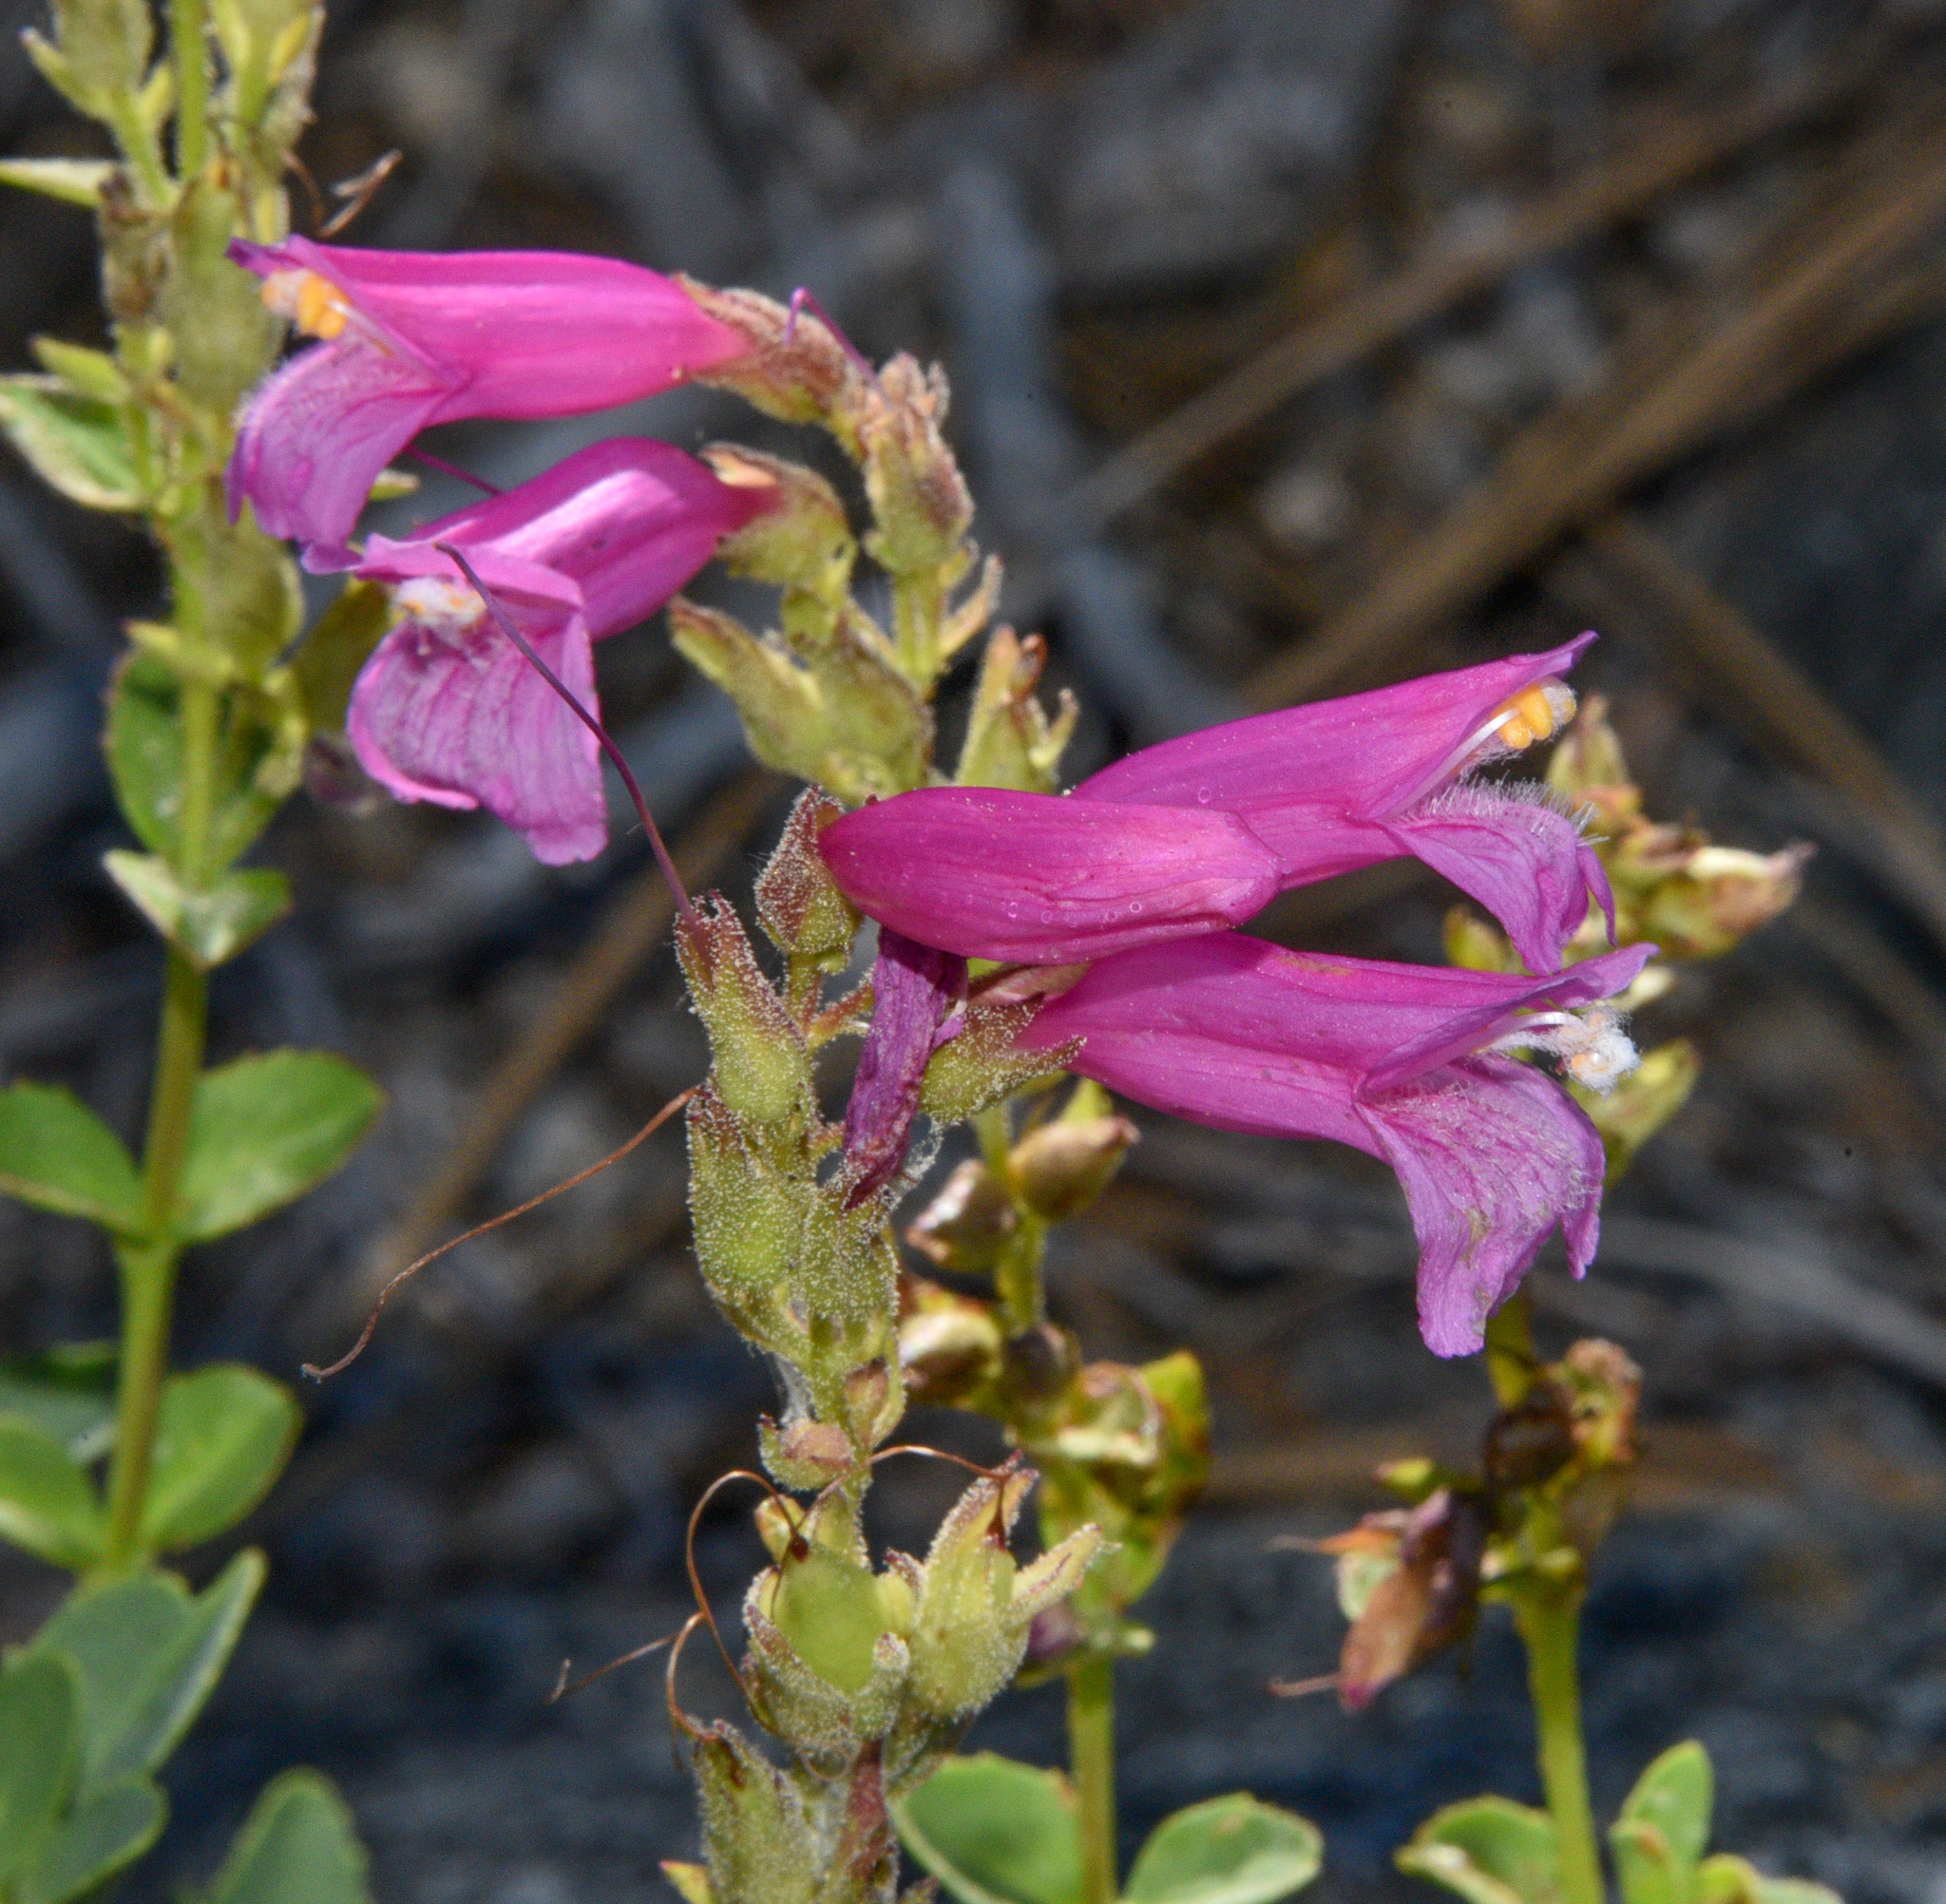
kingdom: Plantae
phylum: Tracheophyta
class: Magnoliopsida
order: Lamiales
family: Plantaginaceae
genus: Penstemon
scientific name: Penstemon newberryi
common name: Mountain-pride
